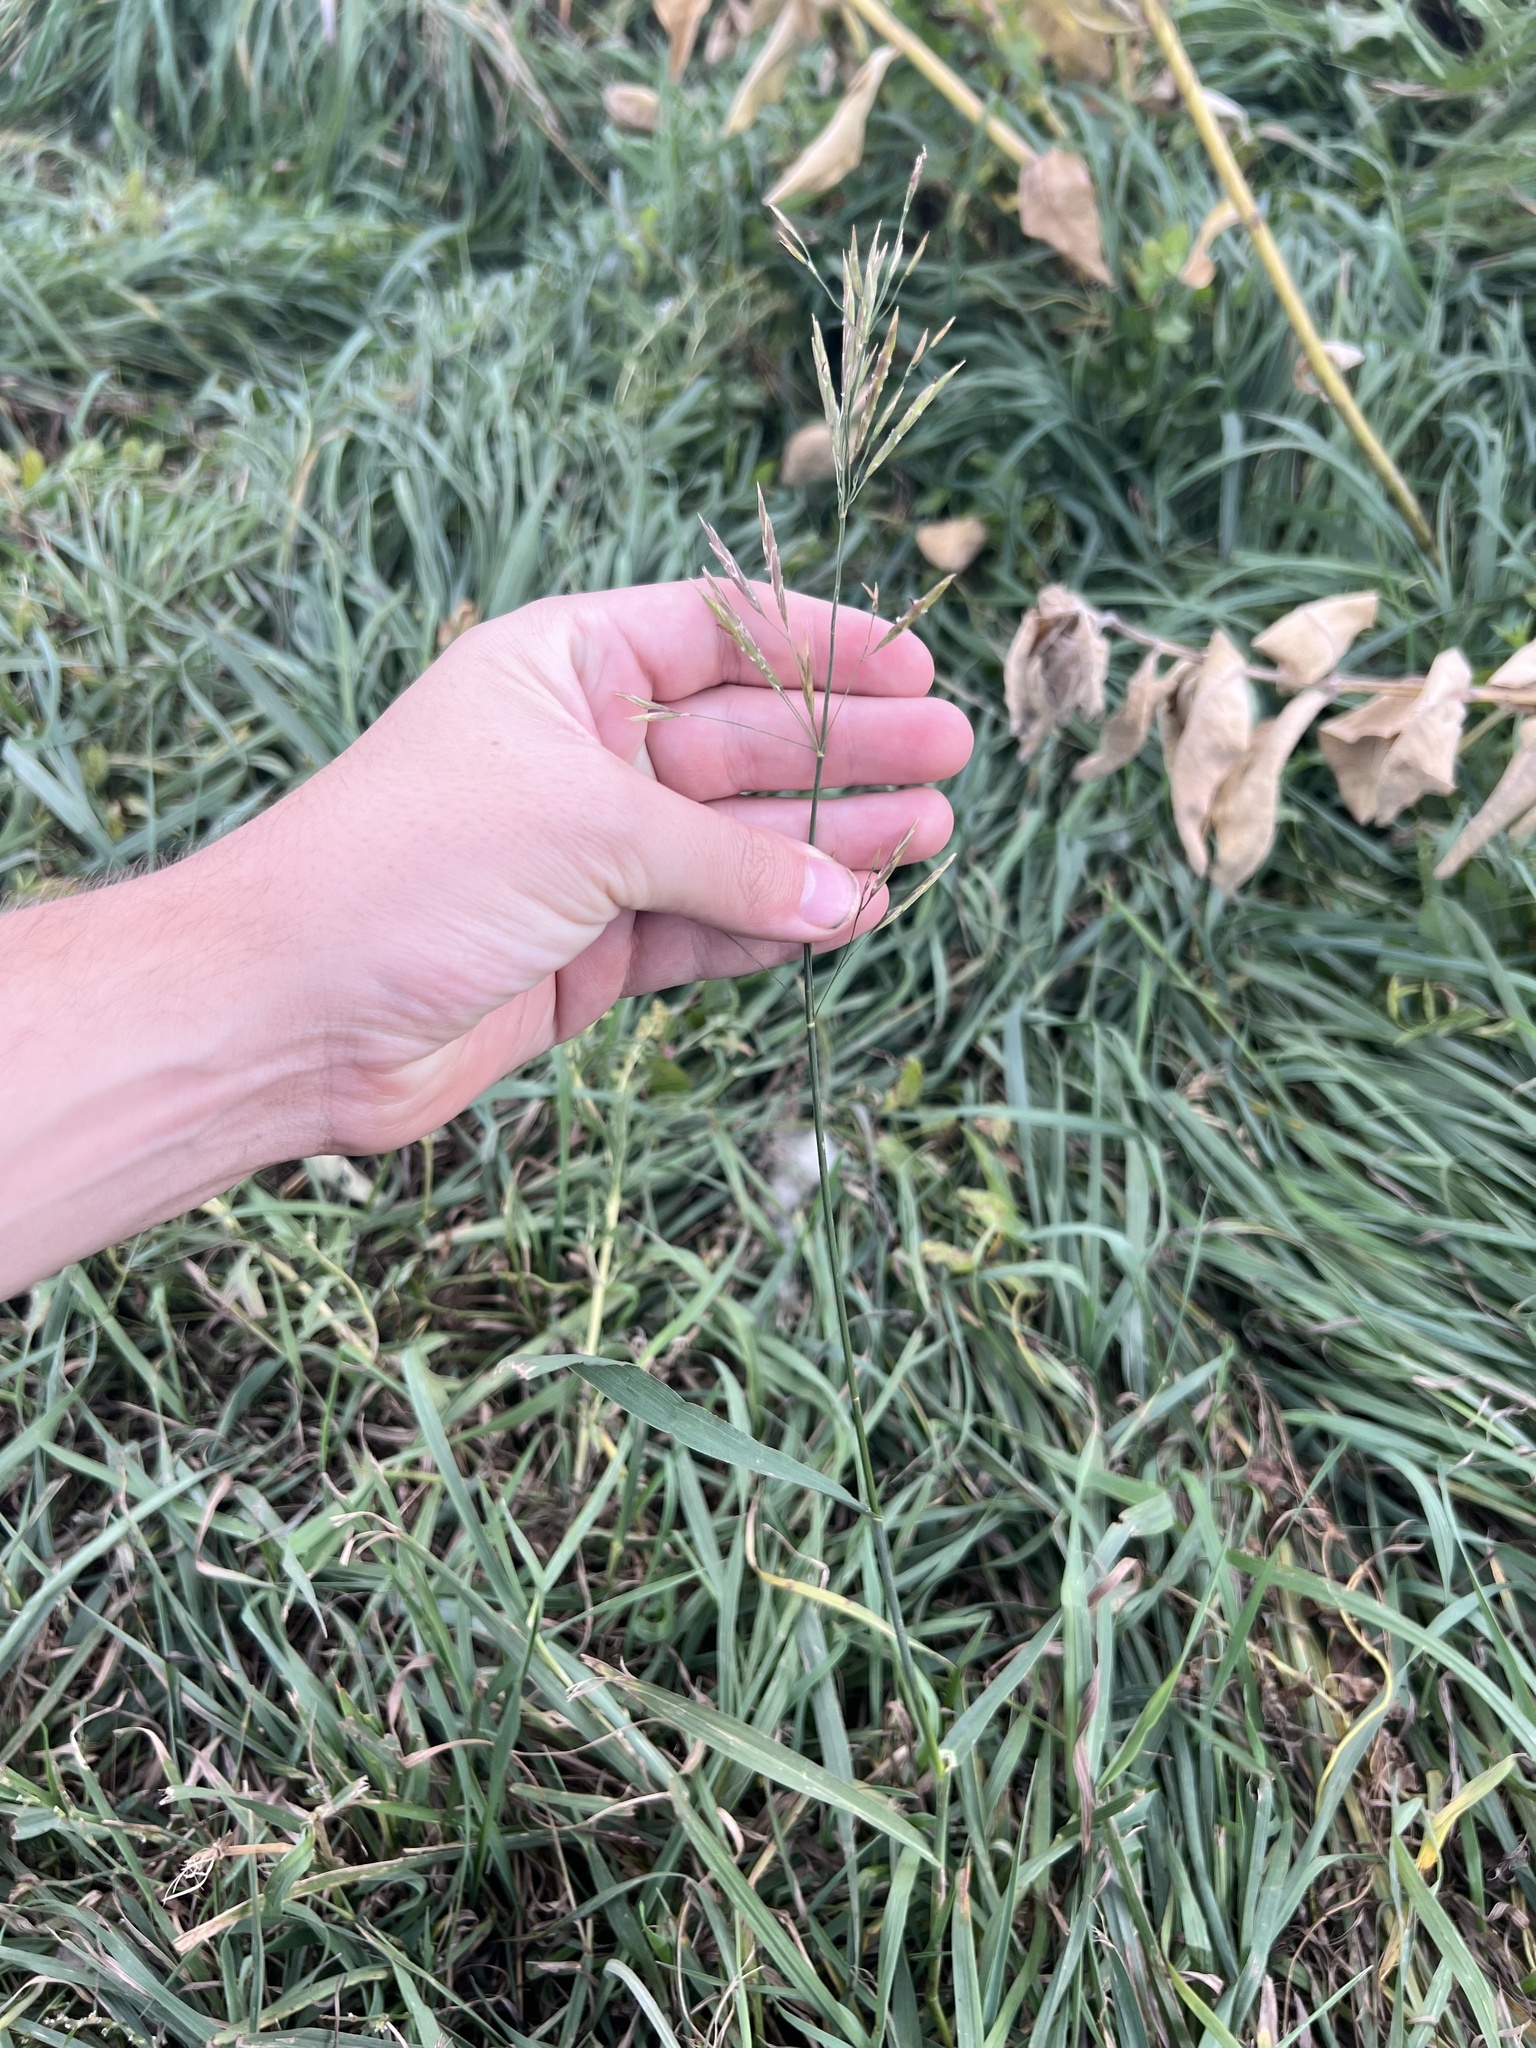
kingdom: Plantae
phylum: Tracheophyta
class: Liliopsida
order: Poales
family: Poaceae
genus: Bromus
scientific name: Bromus inermis
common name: Smooth brome
